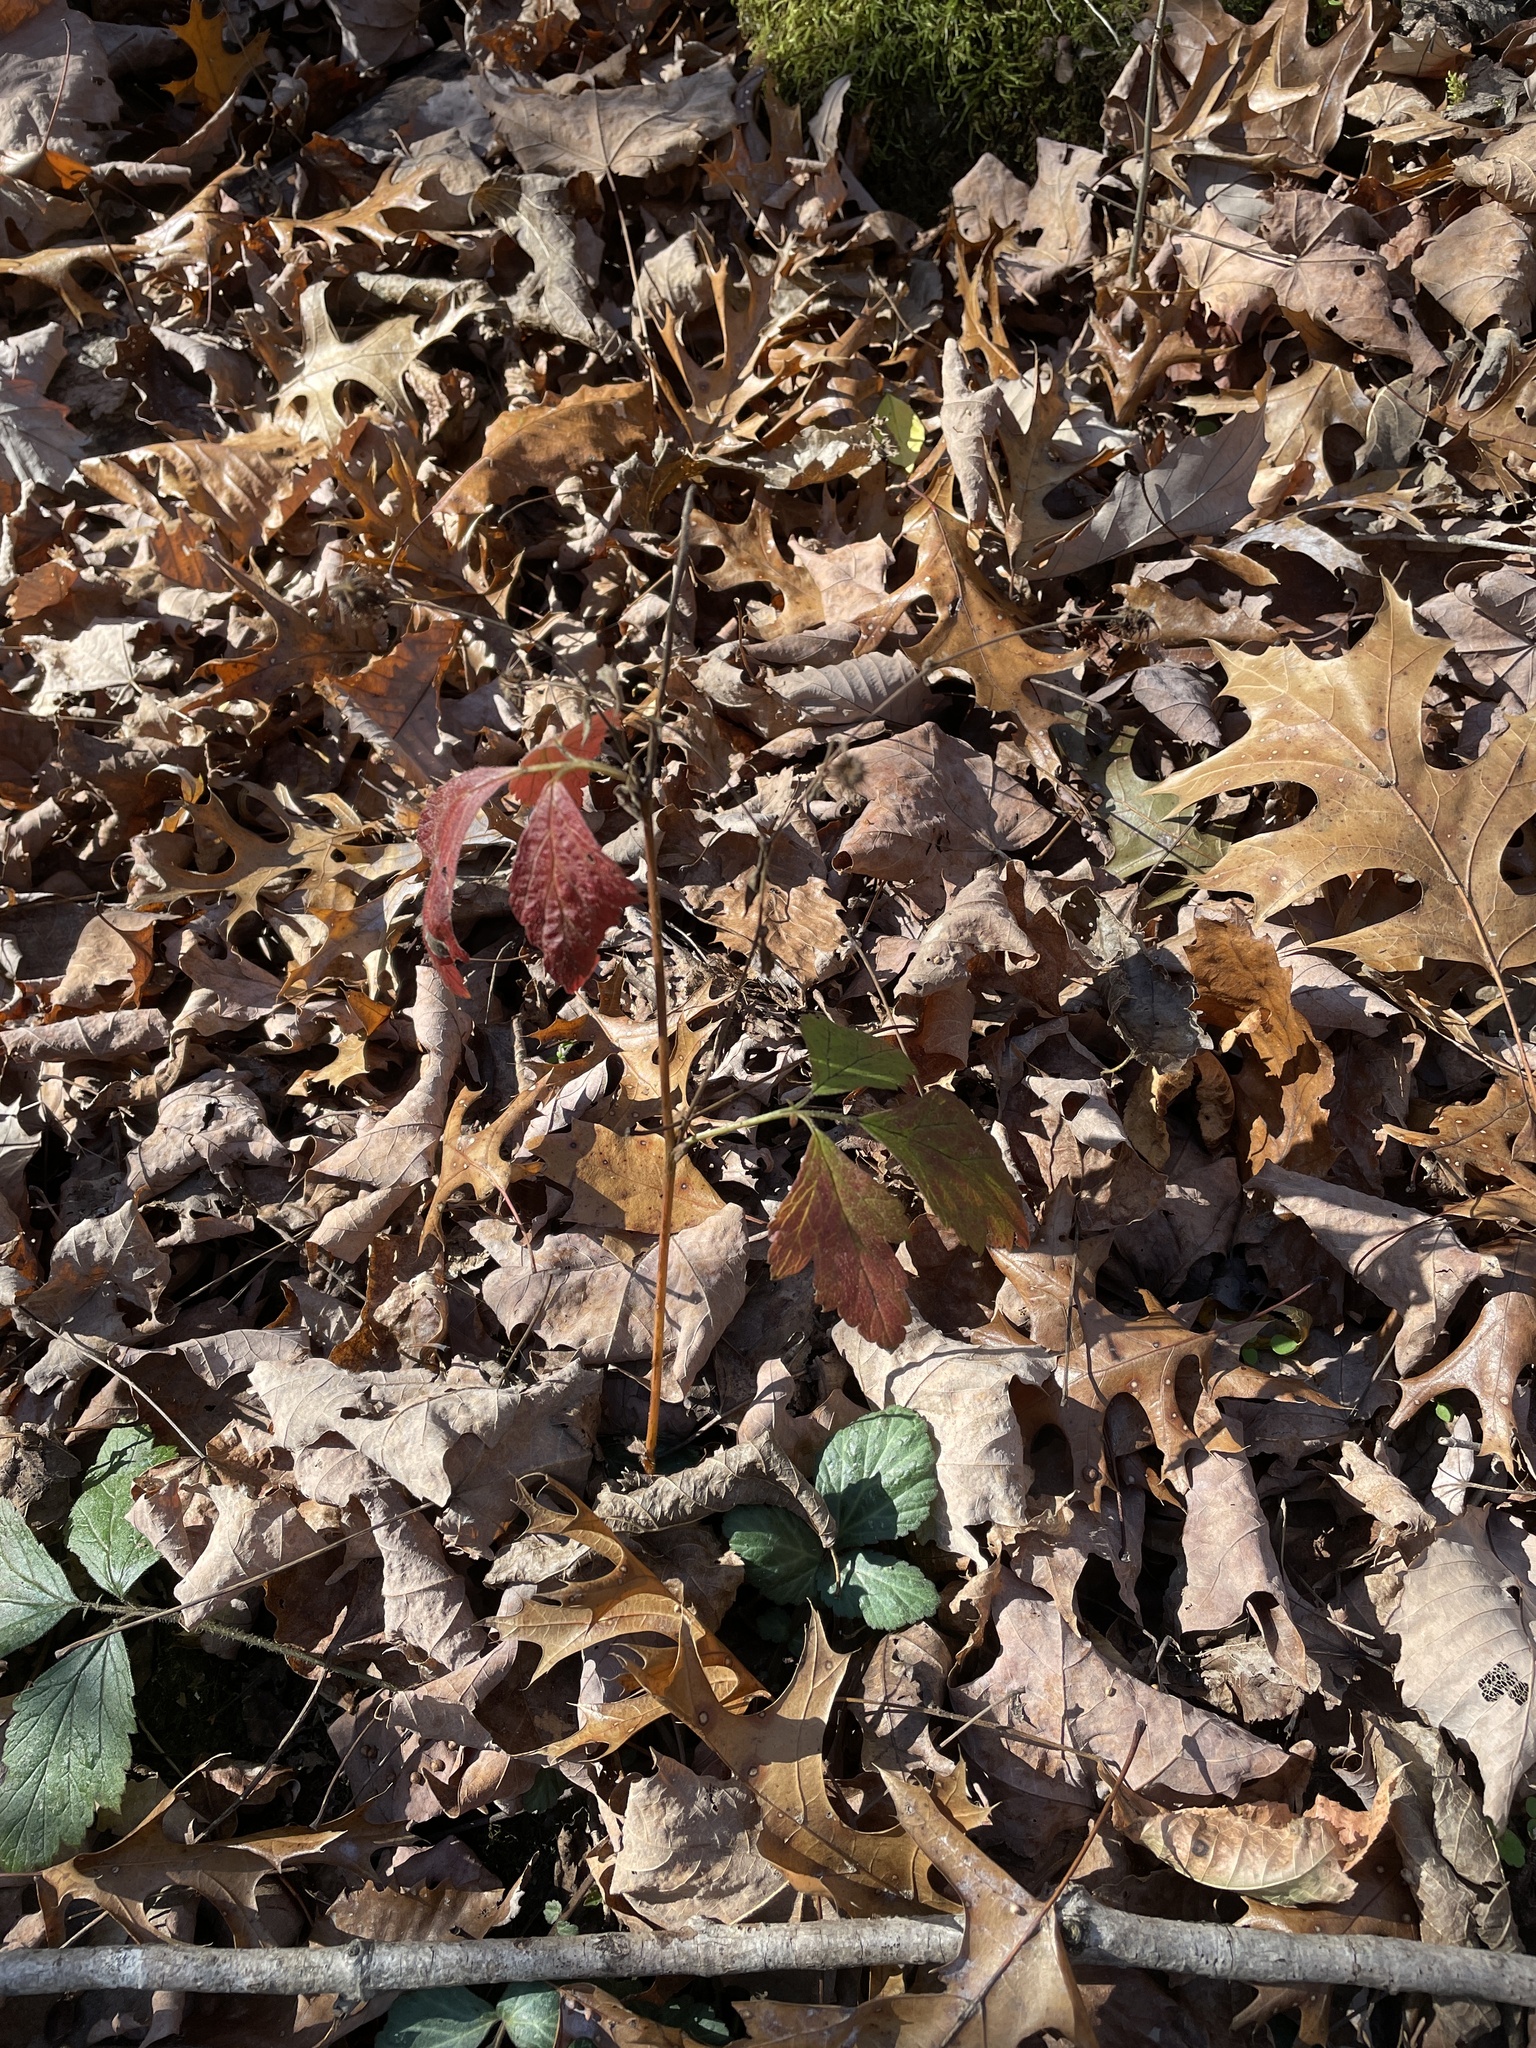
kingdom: Plantae
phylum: Tracheophyta
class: Magnoliopsida
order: Rosales
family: Rosaceae
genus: Geum
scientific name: Geum canadense
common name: White avens
